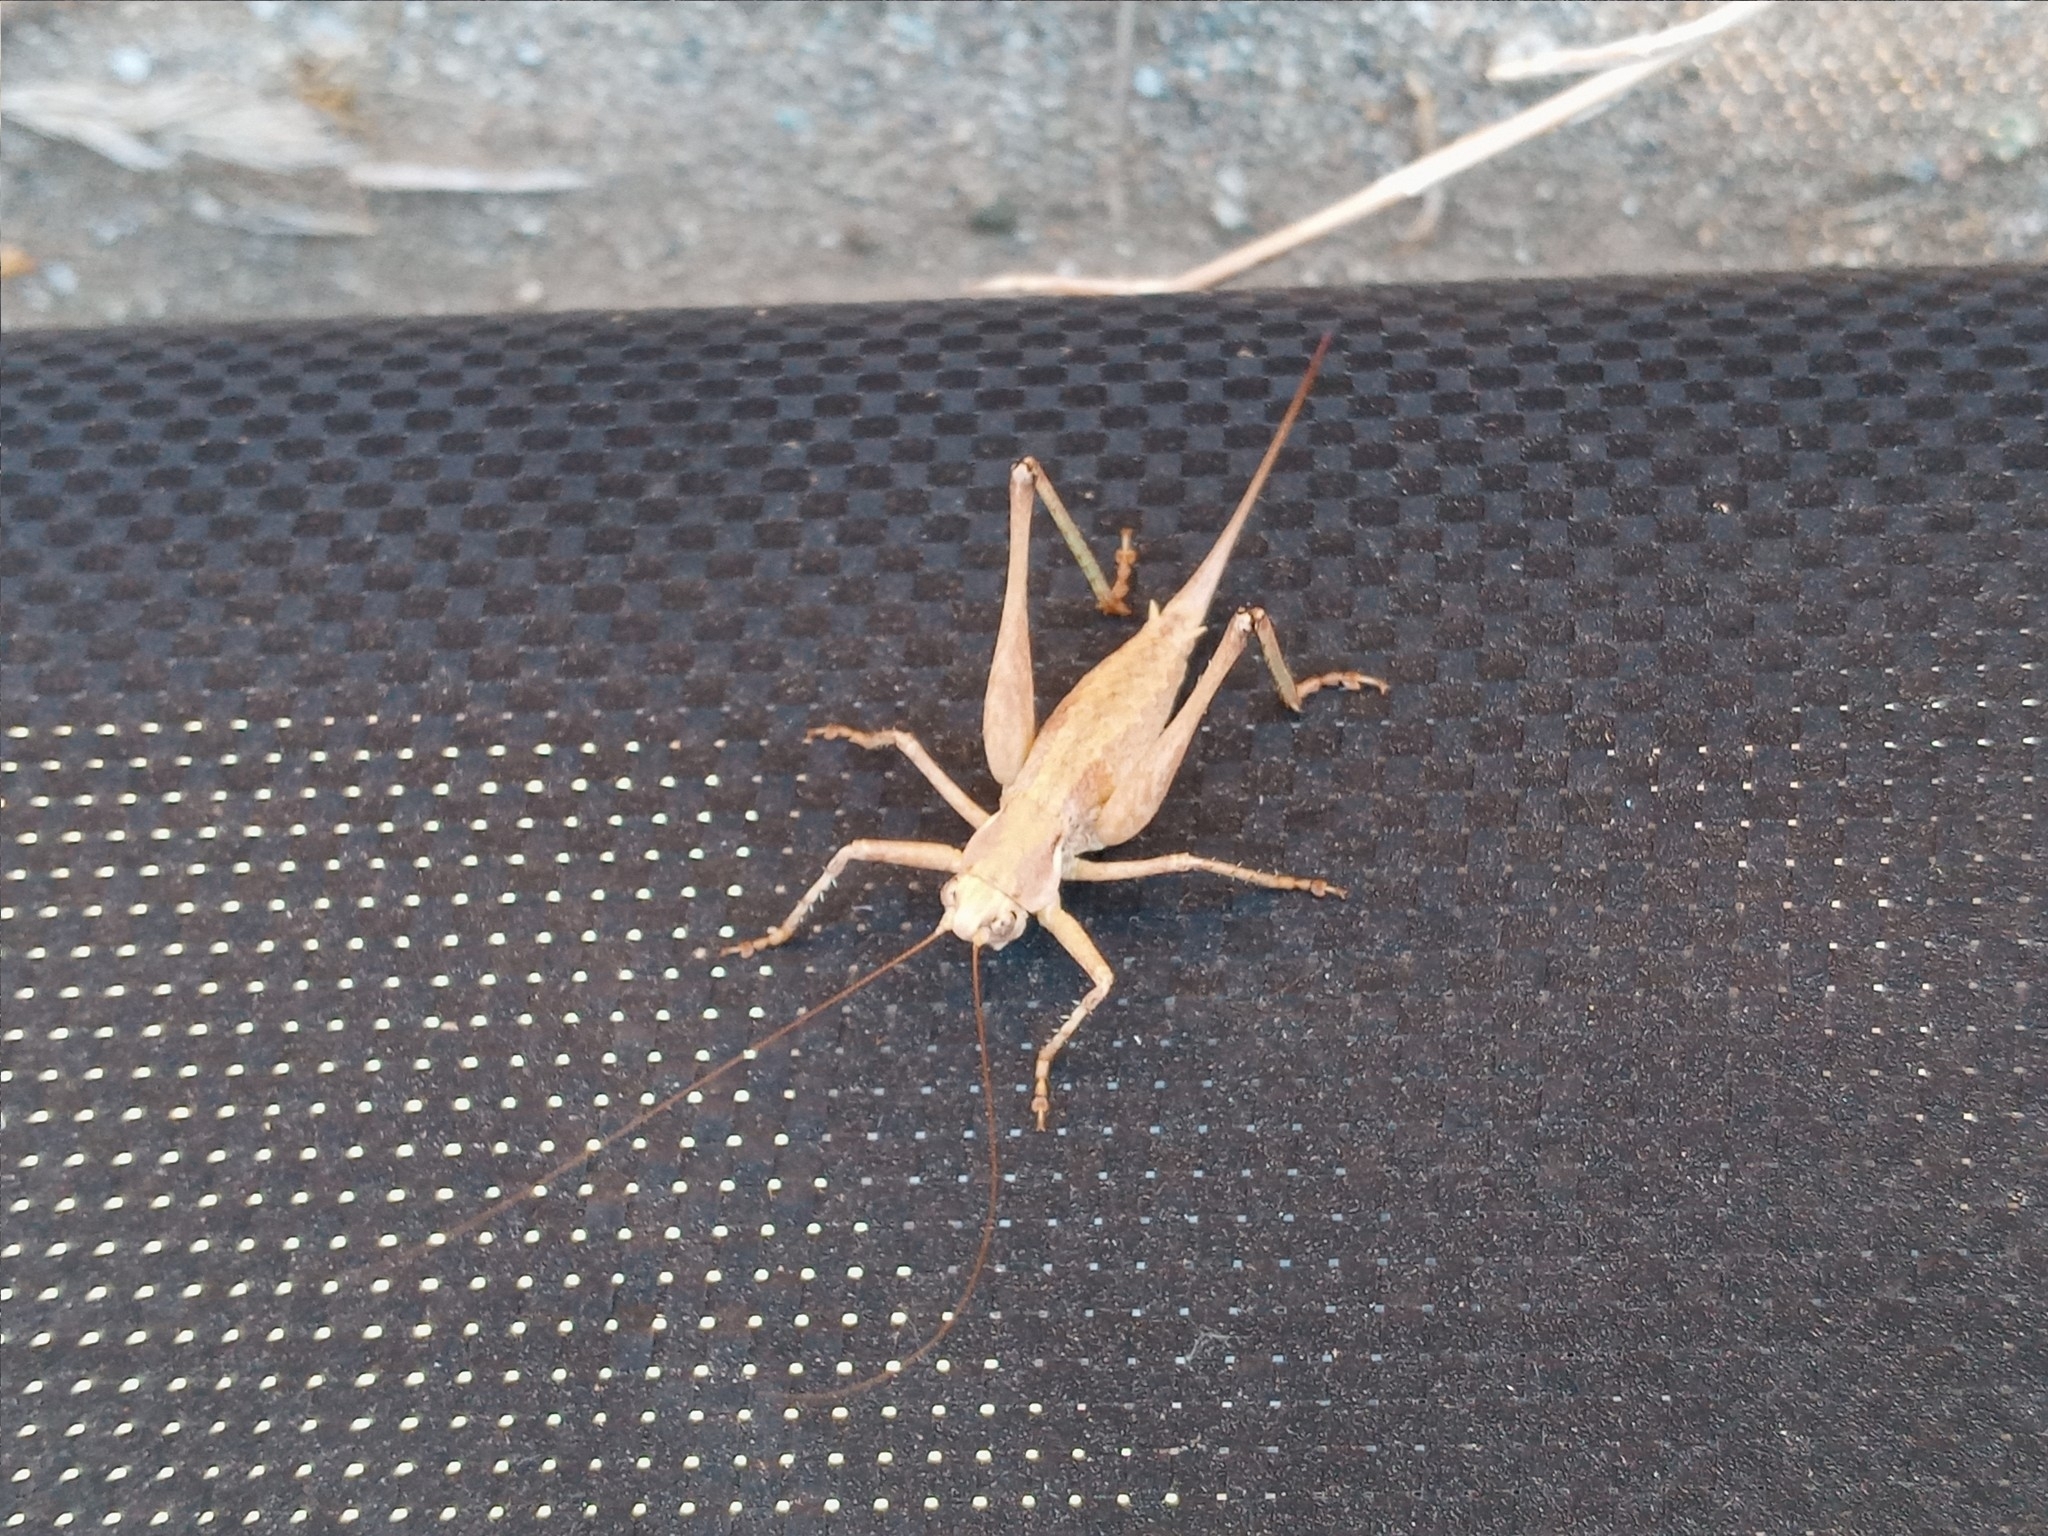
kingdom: Animalia
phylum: Arthropoda
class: Insecta
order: Orthoptera
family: Tettigoniidae
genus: Idiostatus
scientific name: Idiostatus aequalis
